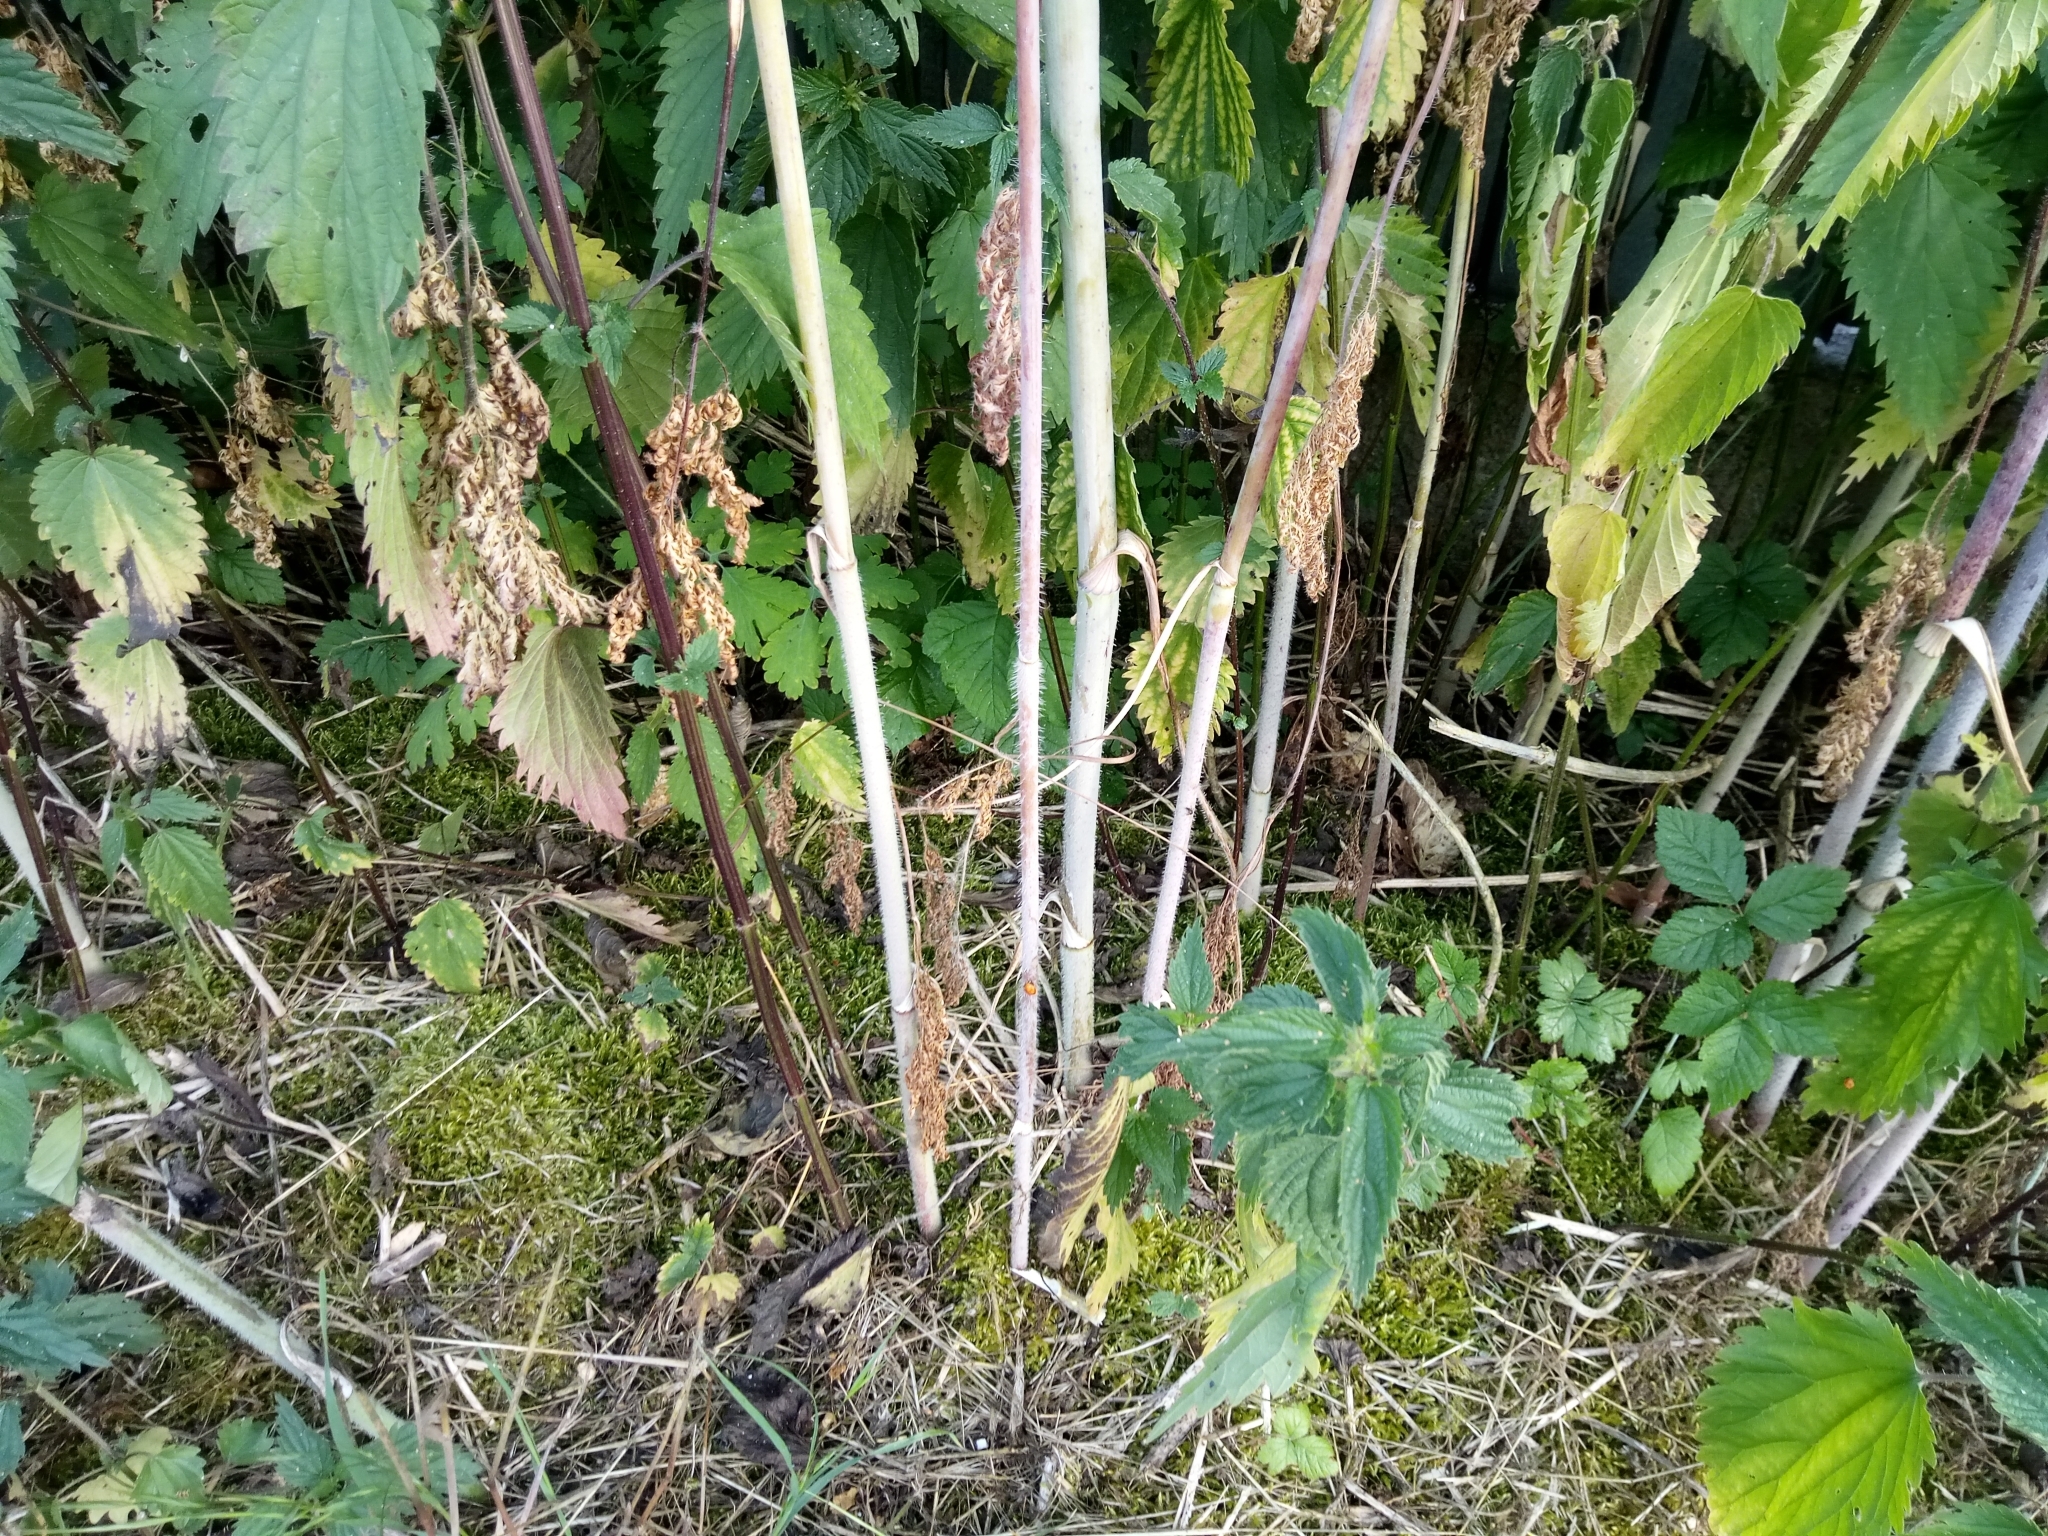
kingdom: Plantae
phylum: Tracheophyta
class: Magnoliopsida
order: Apiales
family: Apiaceae
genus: Chaerophyllum
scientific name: Chaerophyllum bulbosum
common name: Bulbous chervil
